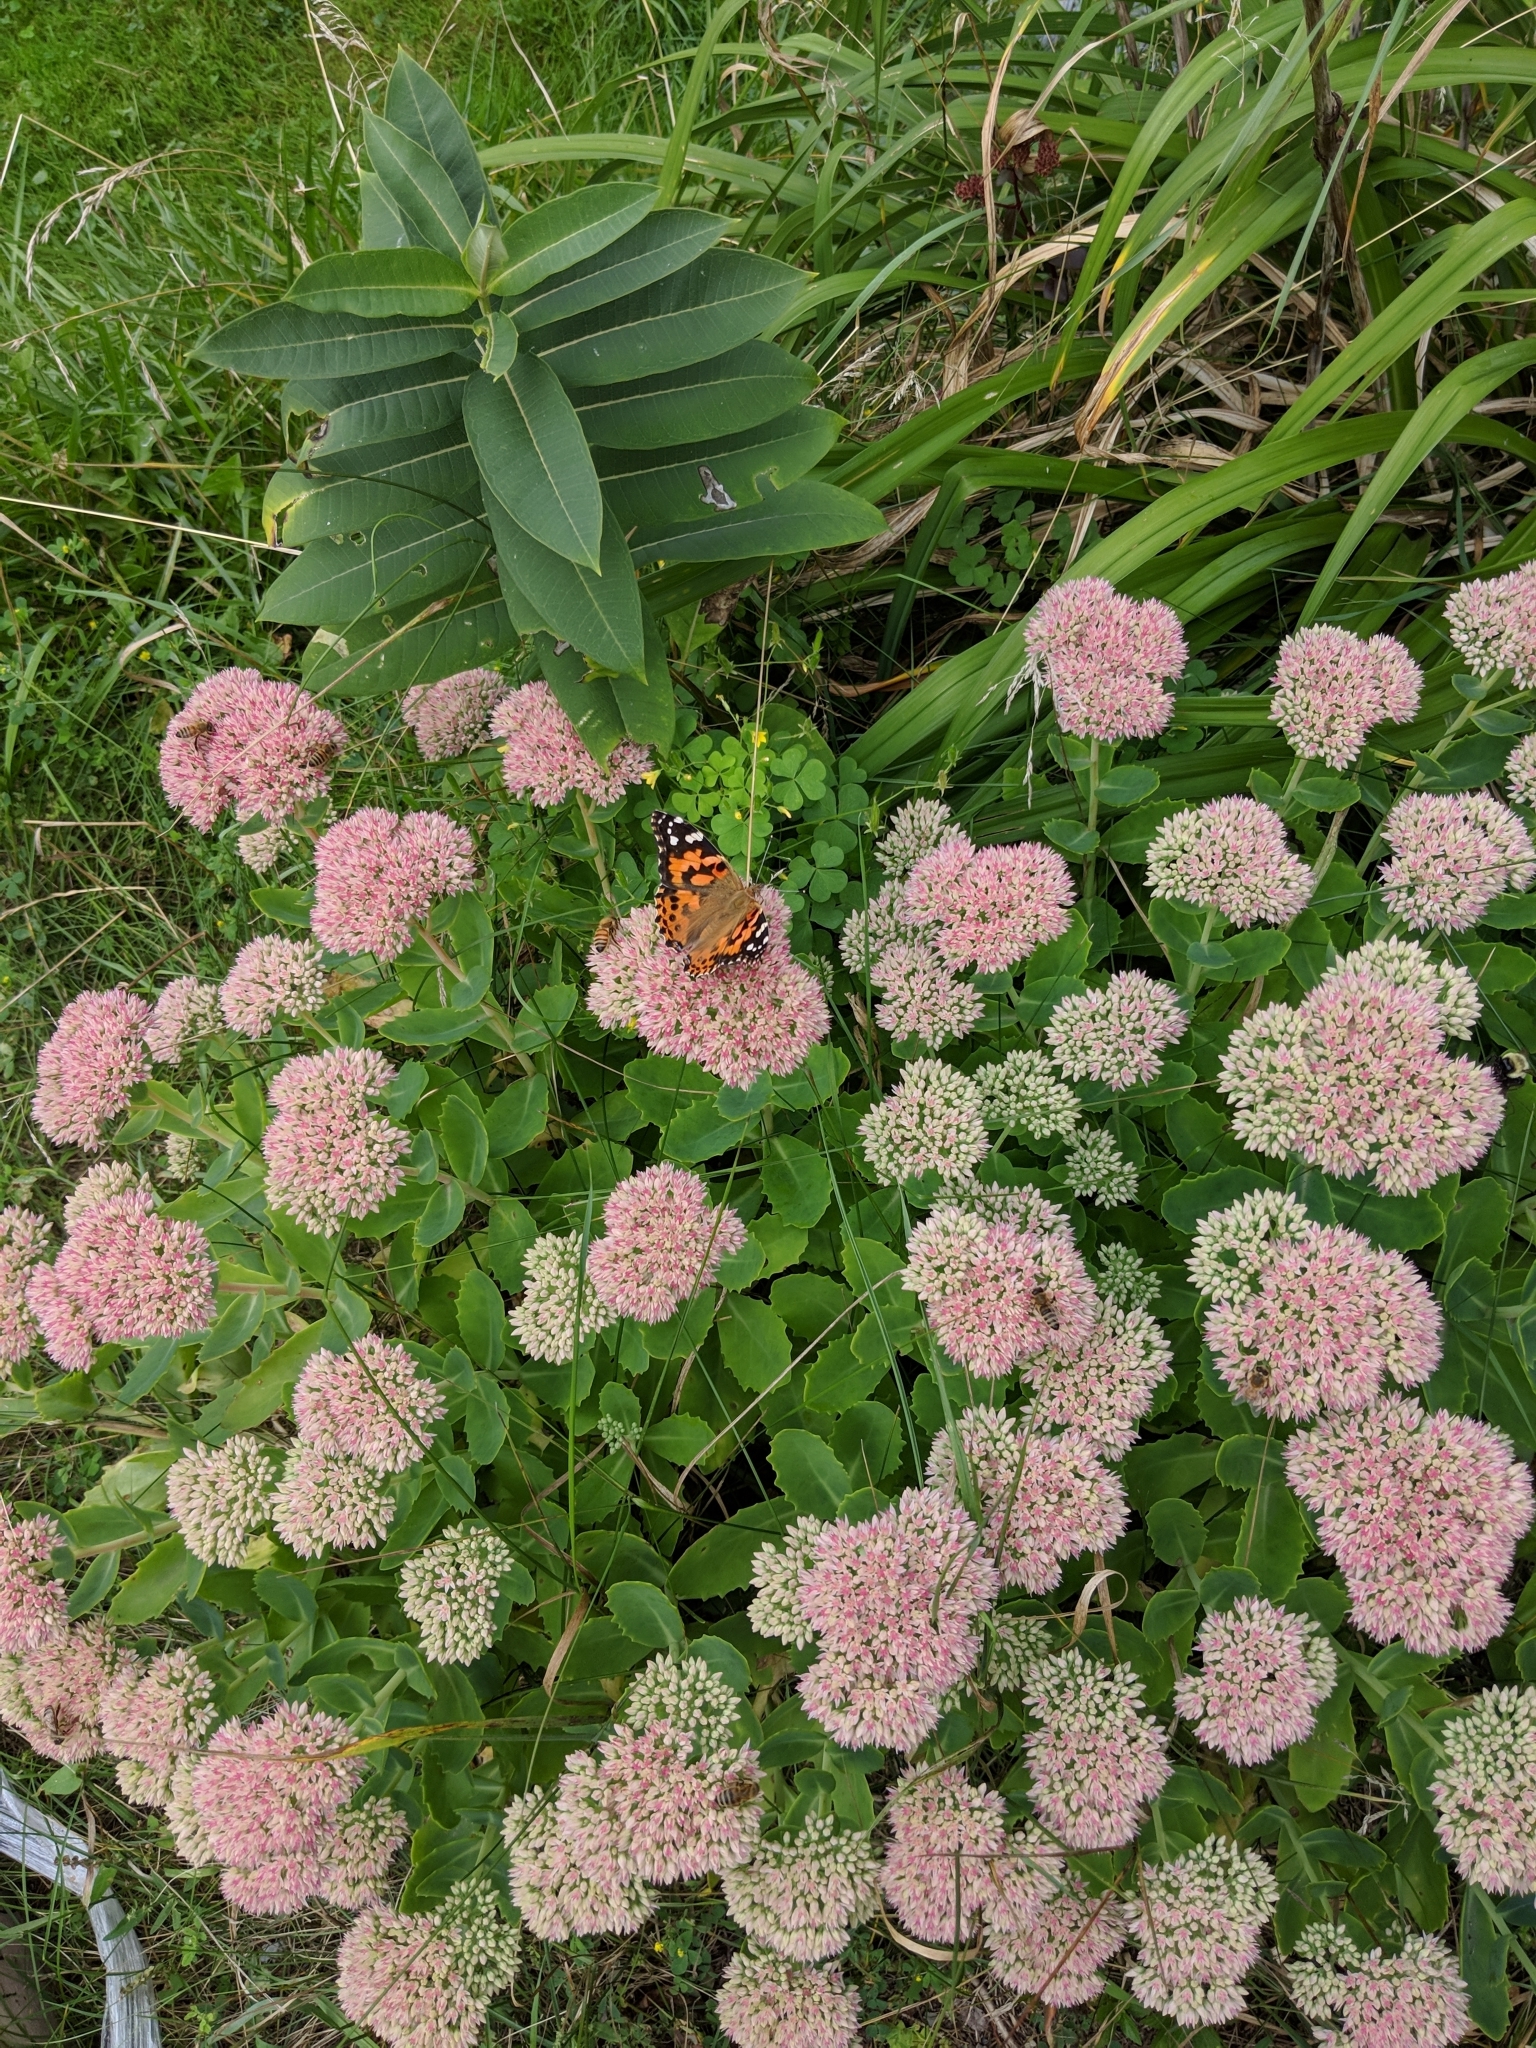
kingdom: Animalia
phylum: Arthropoda
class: Insecta
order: Lepidoptera
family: Nymphalidae
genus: Vanessa
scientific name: Vanessa cardui
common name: Painted lady
